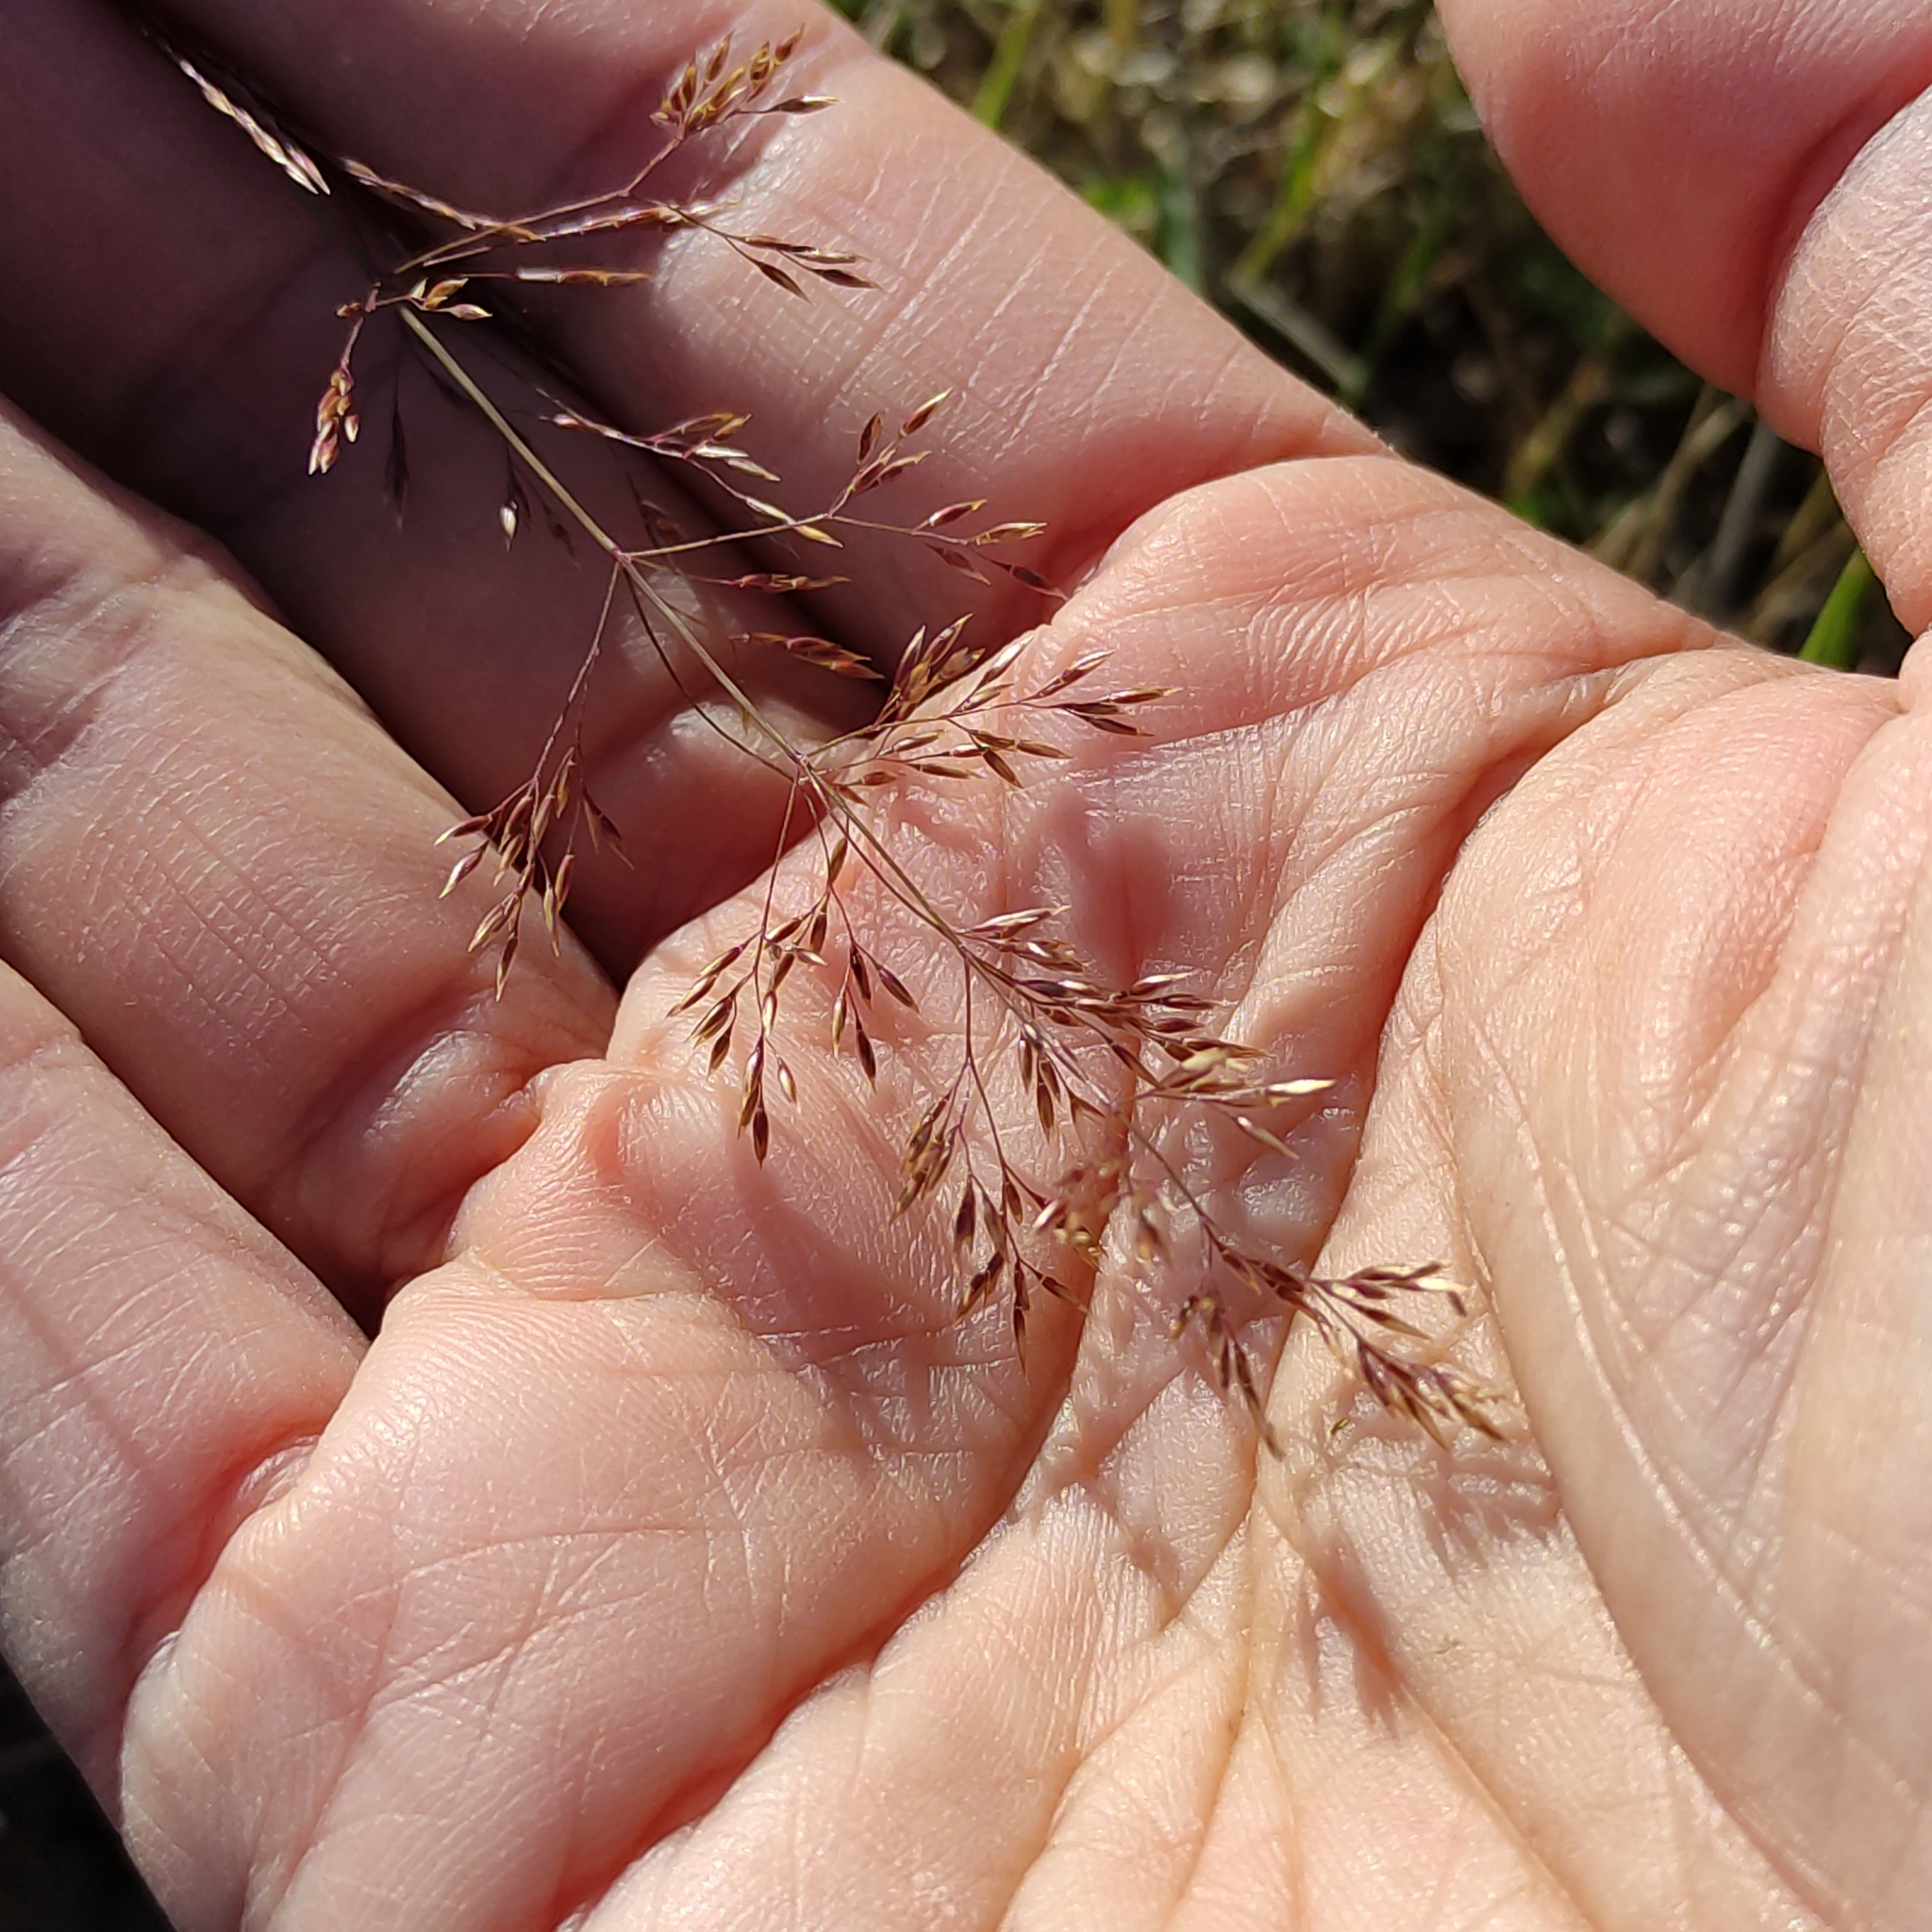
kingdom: Plantae
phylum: Tracheophyta
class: Liliopsida
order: Poales
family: Poaceae
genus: Agrostis
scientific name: Agrostis capillaris
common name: Colonial bentgrass
